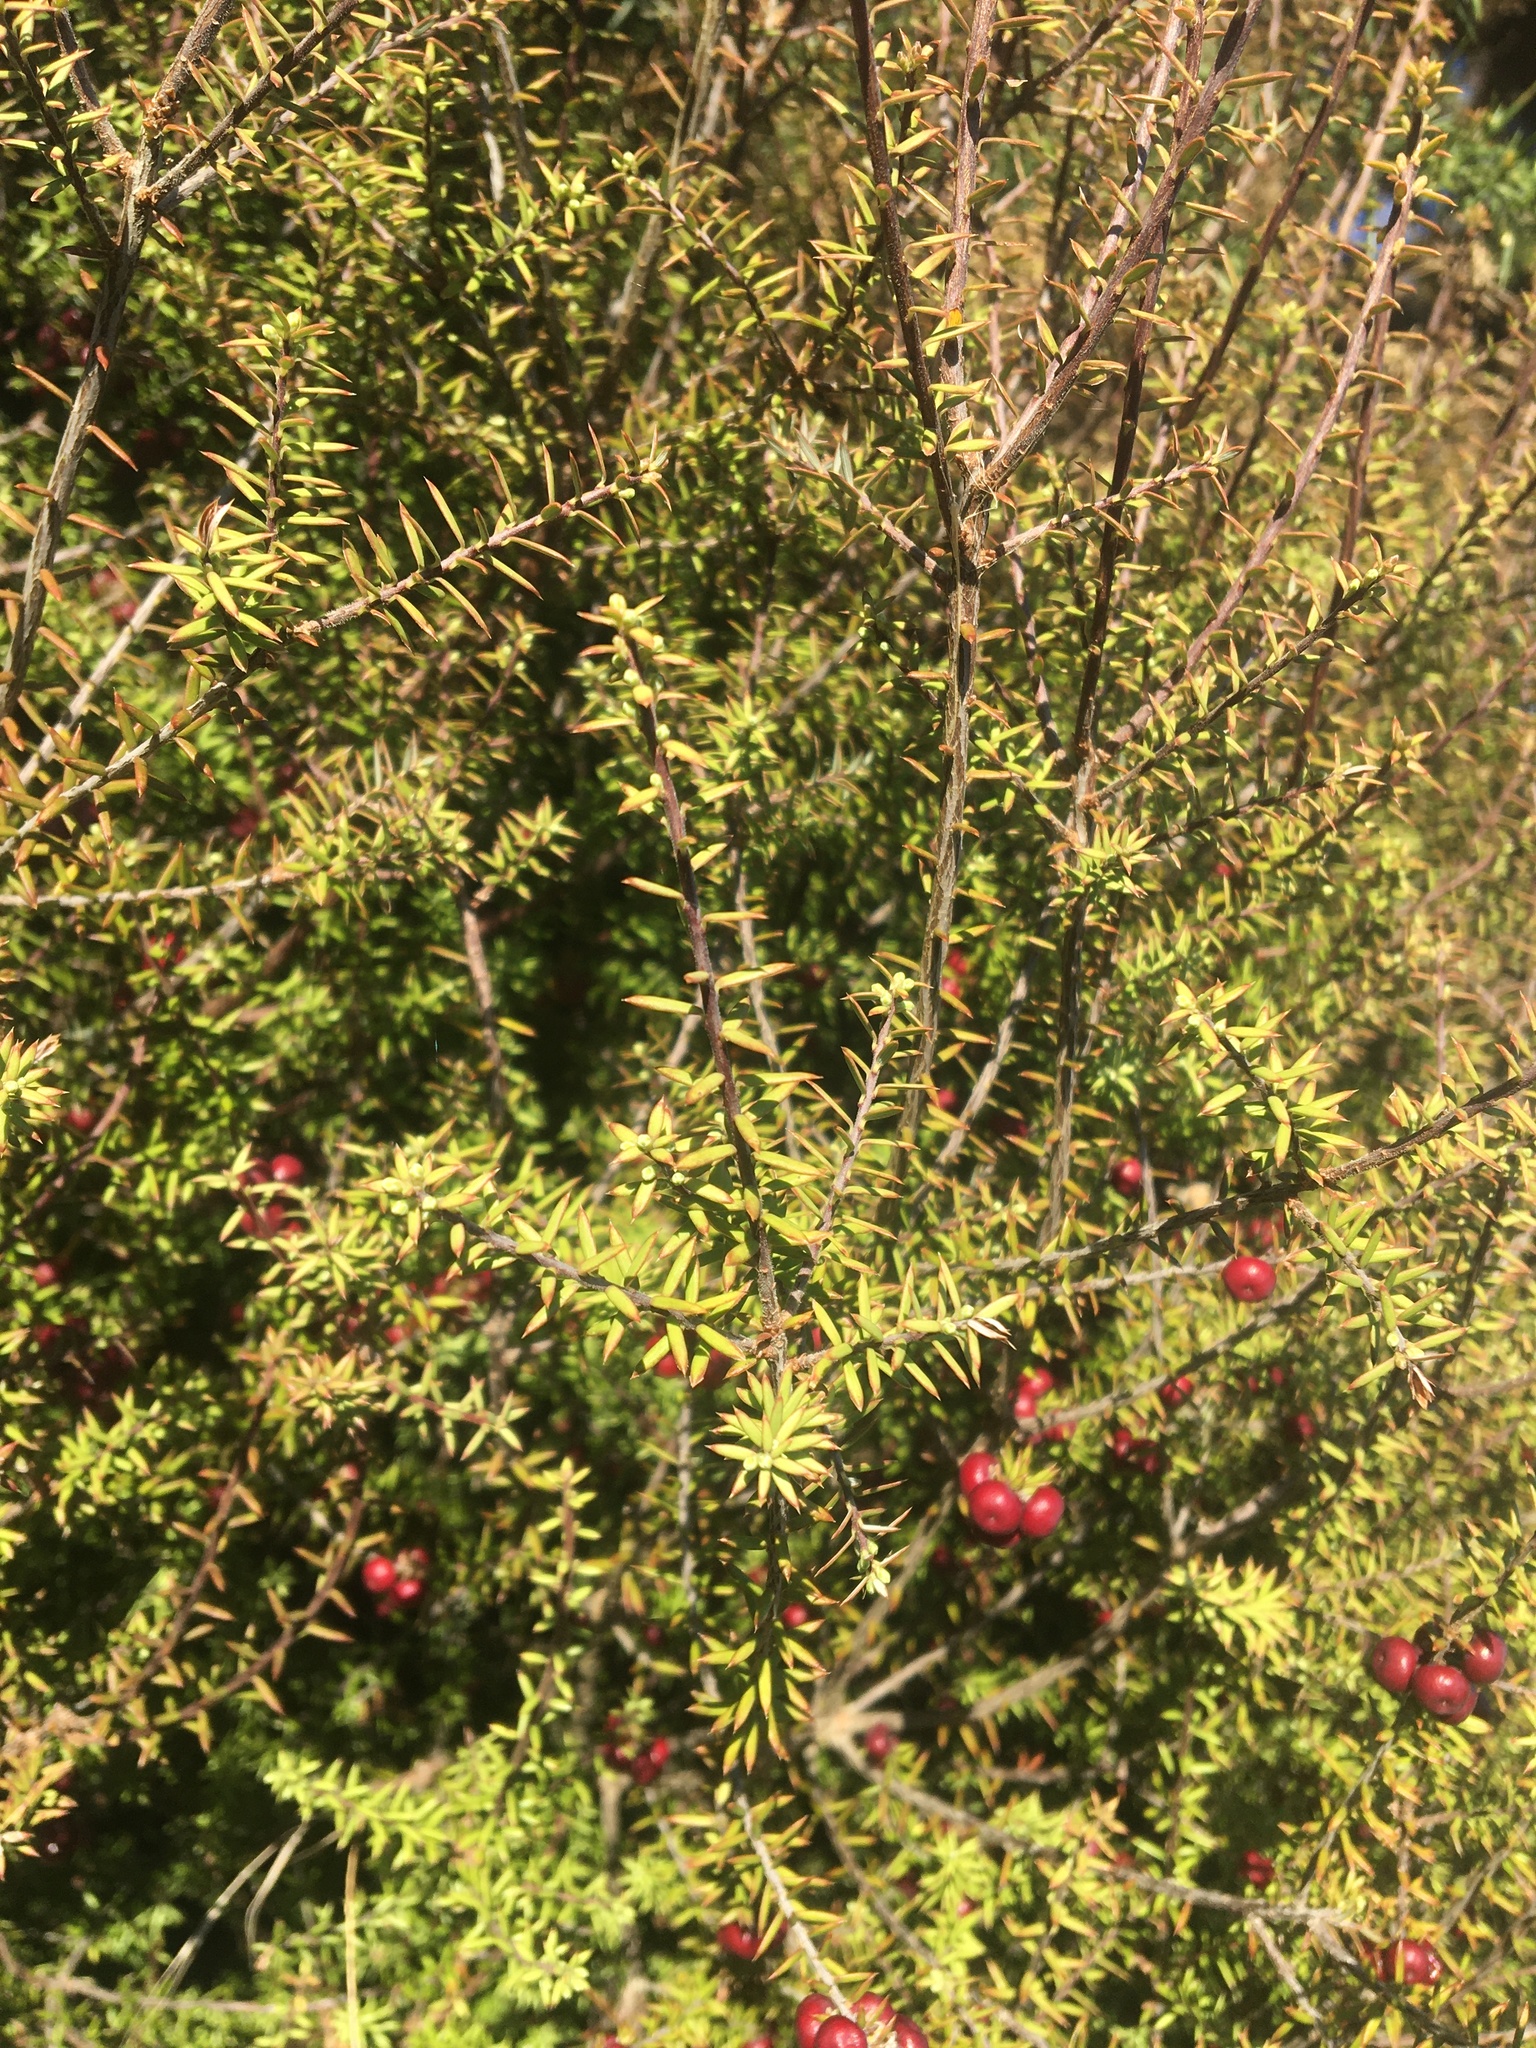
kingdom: Plantae
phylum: Tracheophyta
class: Magnoliopsida
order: Ericales
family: Ericaceae
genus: Leptecophylla
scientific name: Leptecophylla juniperina
